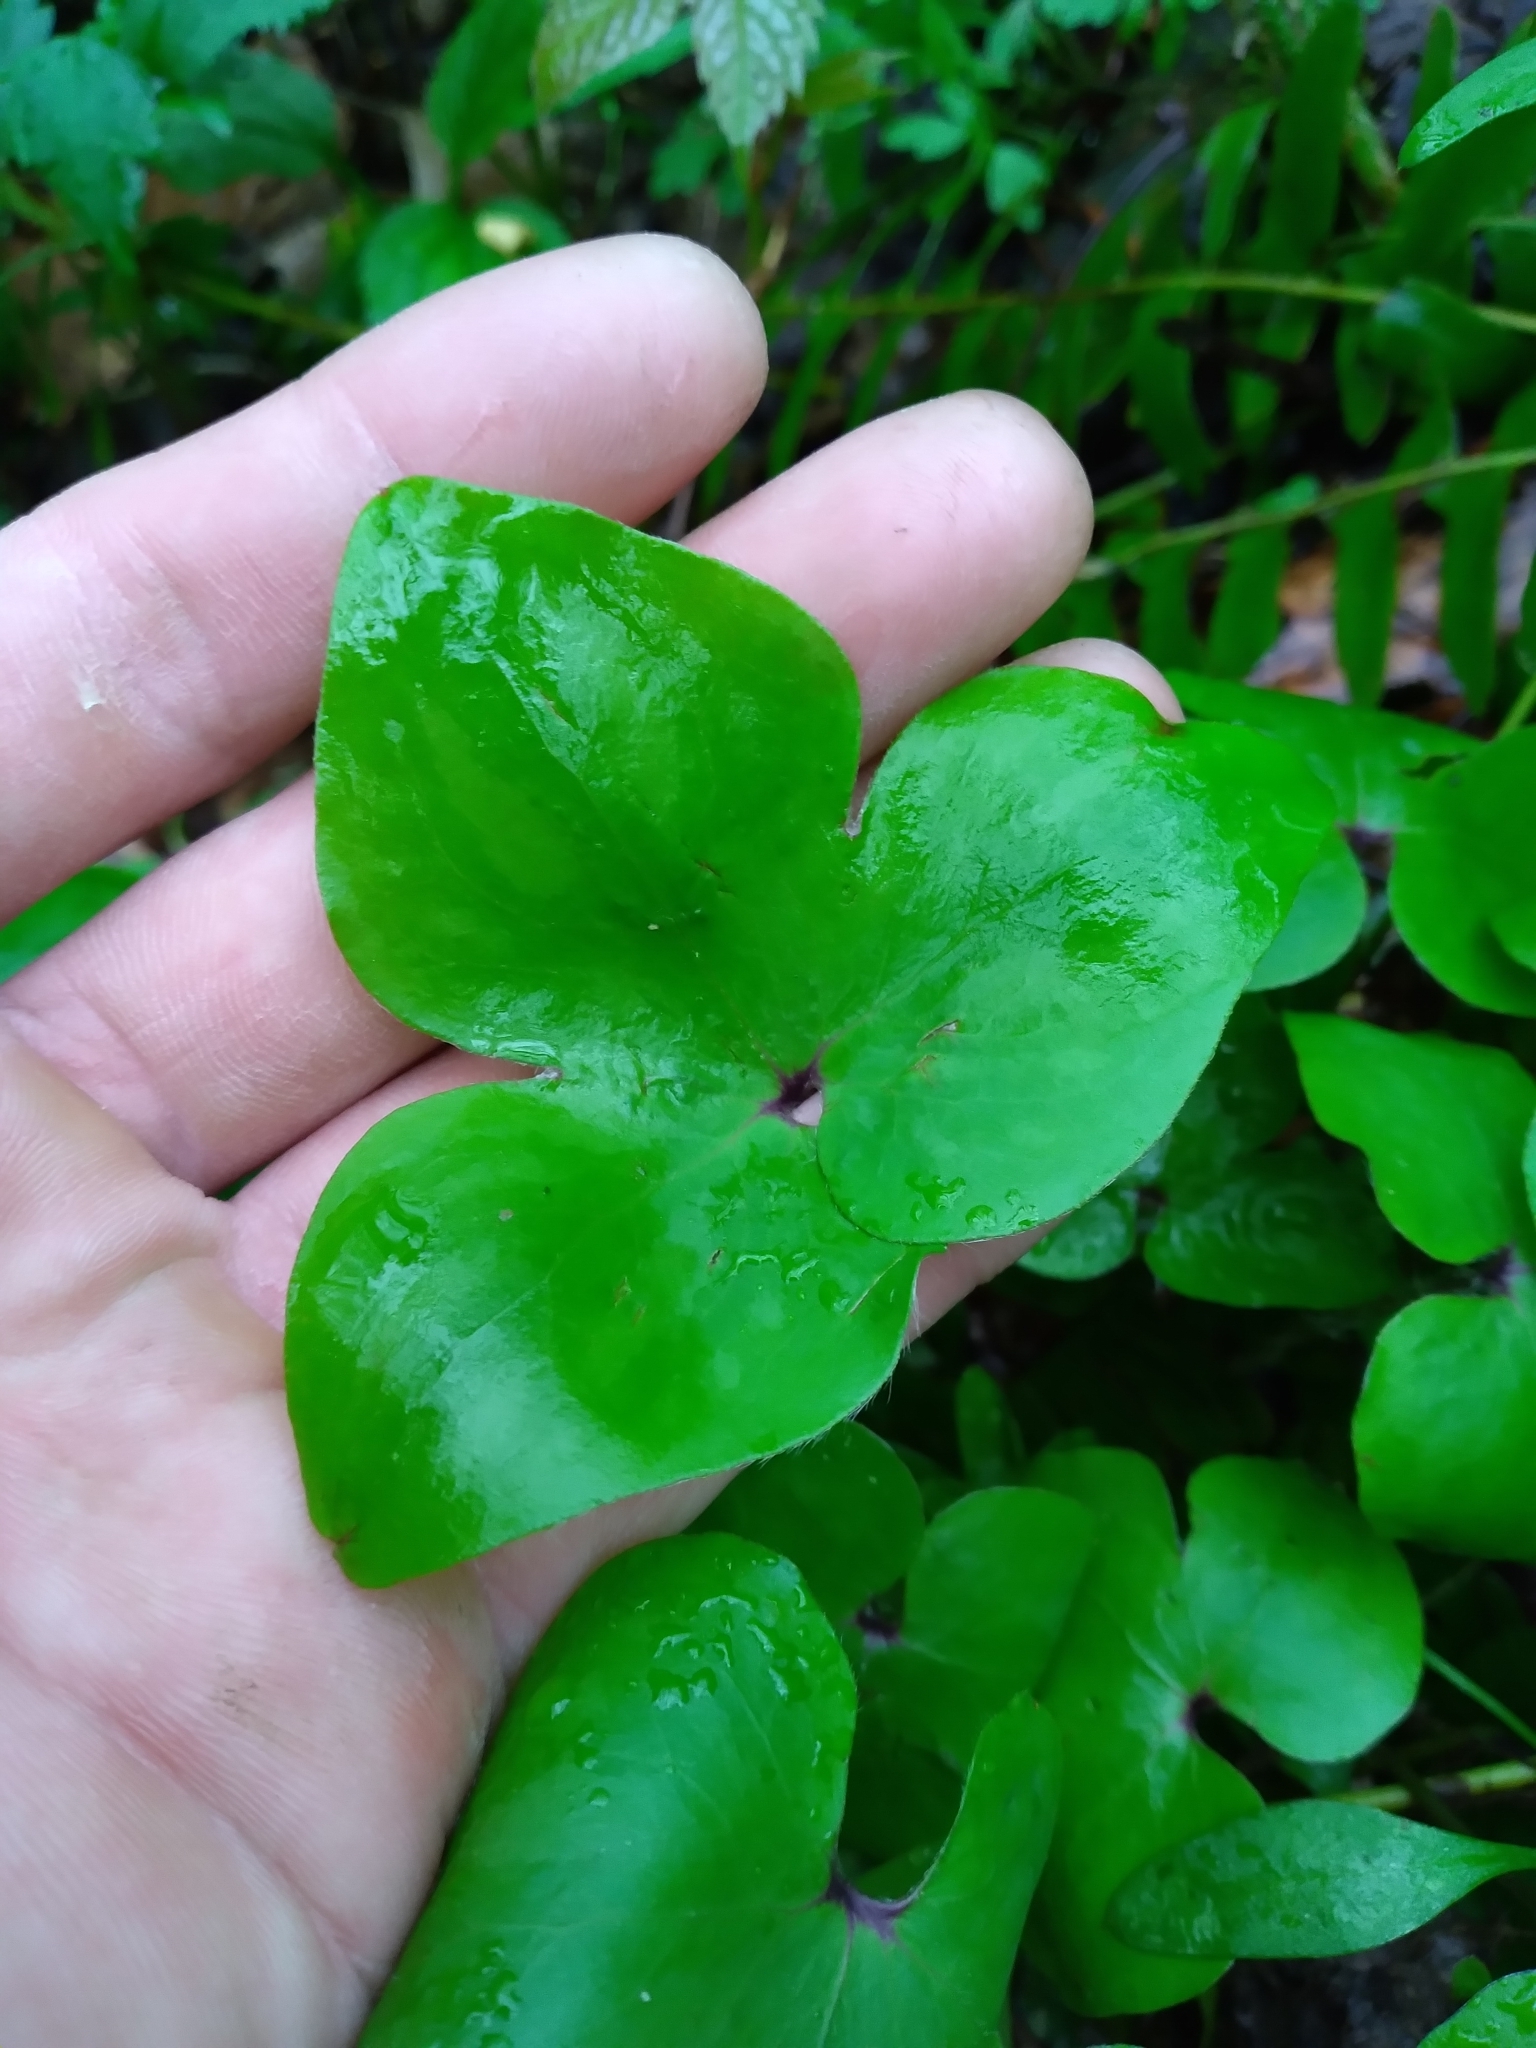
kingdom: Plantae
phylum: Tracheophyta
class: Magnoliopsida
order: Ranunculales
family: Ranunculaceae
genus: Hepatica
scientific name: Hepatica acutiloba
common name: Sharp-lobed hepatica
